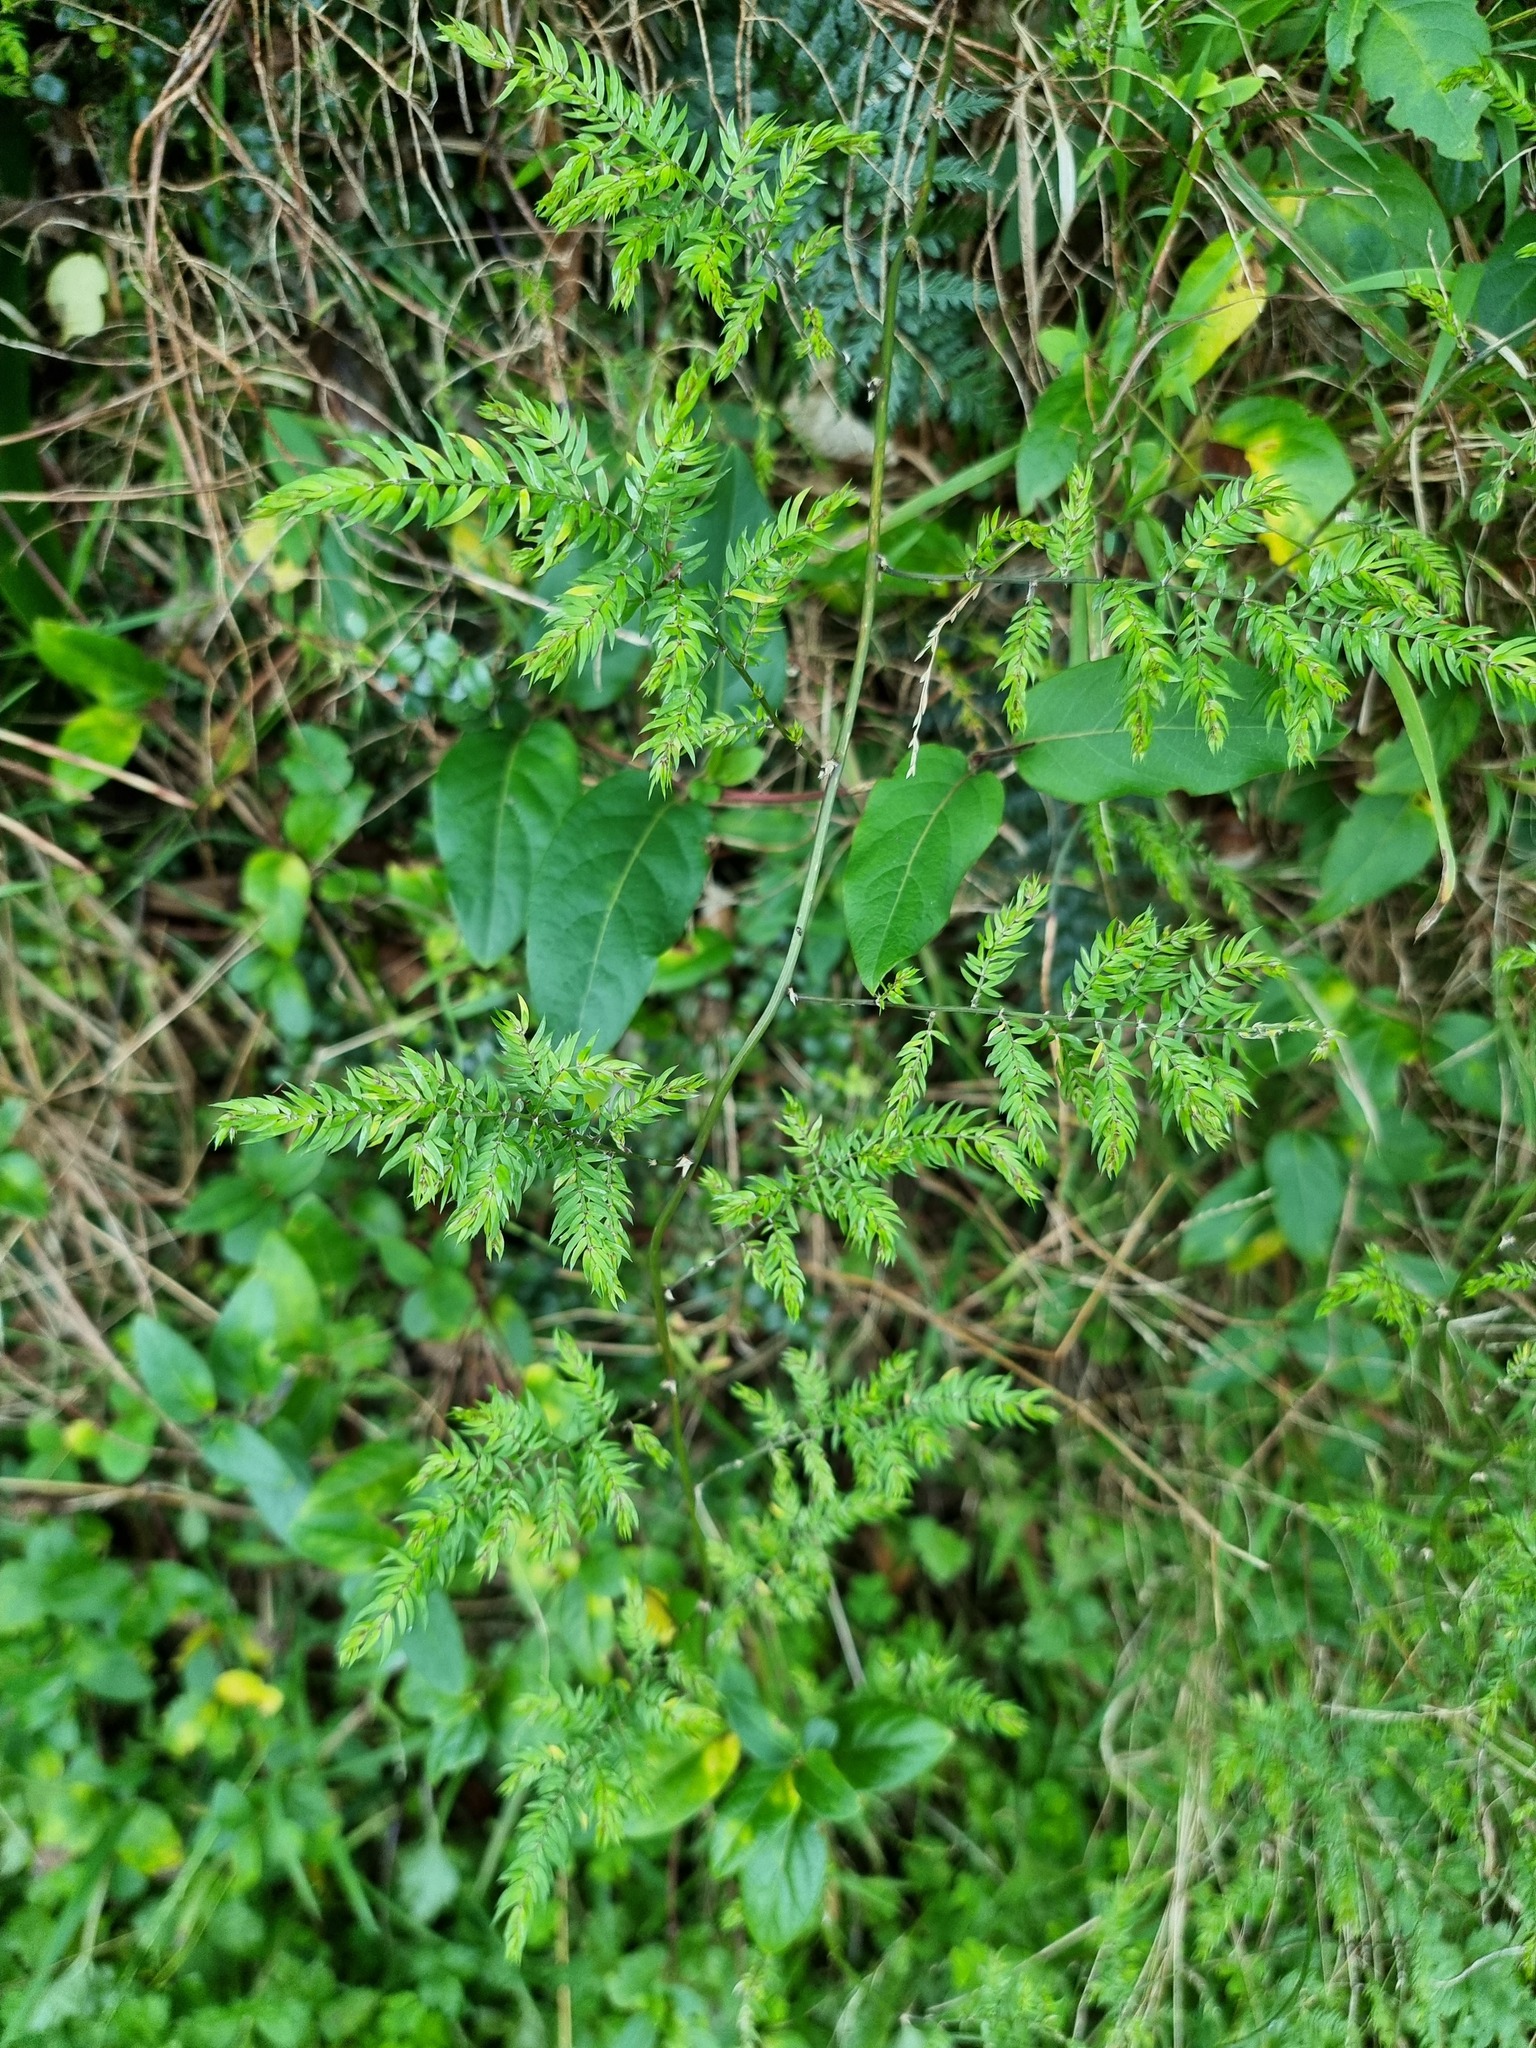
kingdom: Plantae
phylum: Tracheophyta
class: Liliopsida
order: Asparagales
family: Asparagaceae
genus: Asparagus
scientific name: Asparagus scandens
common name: Asparagus-fern
